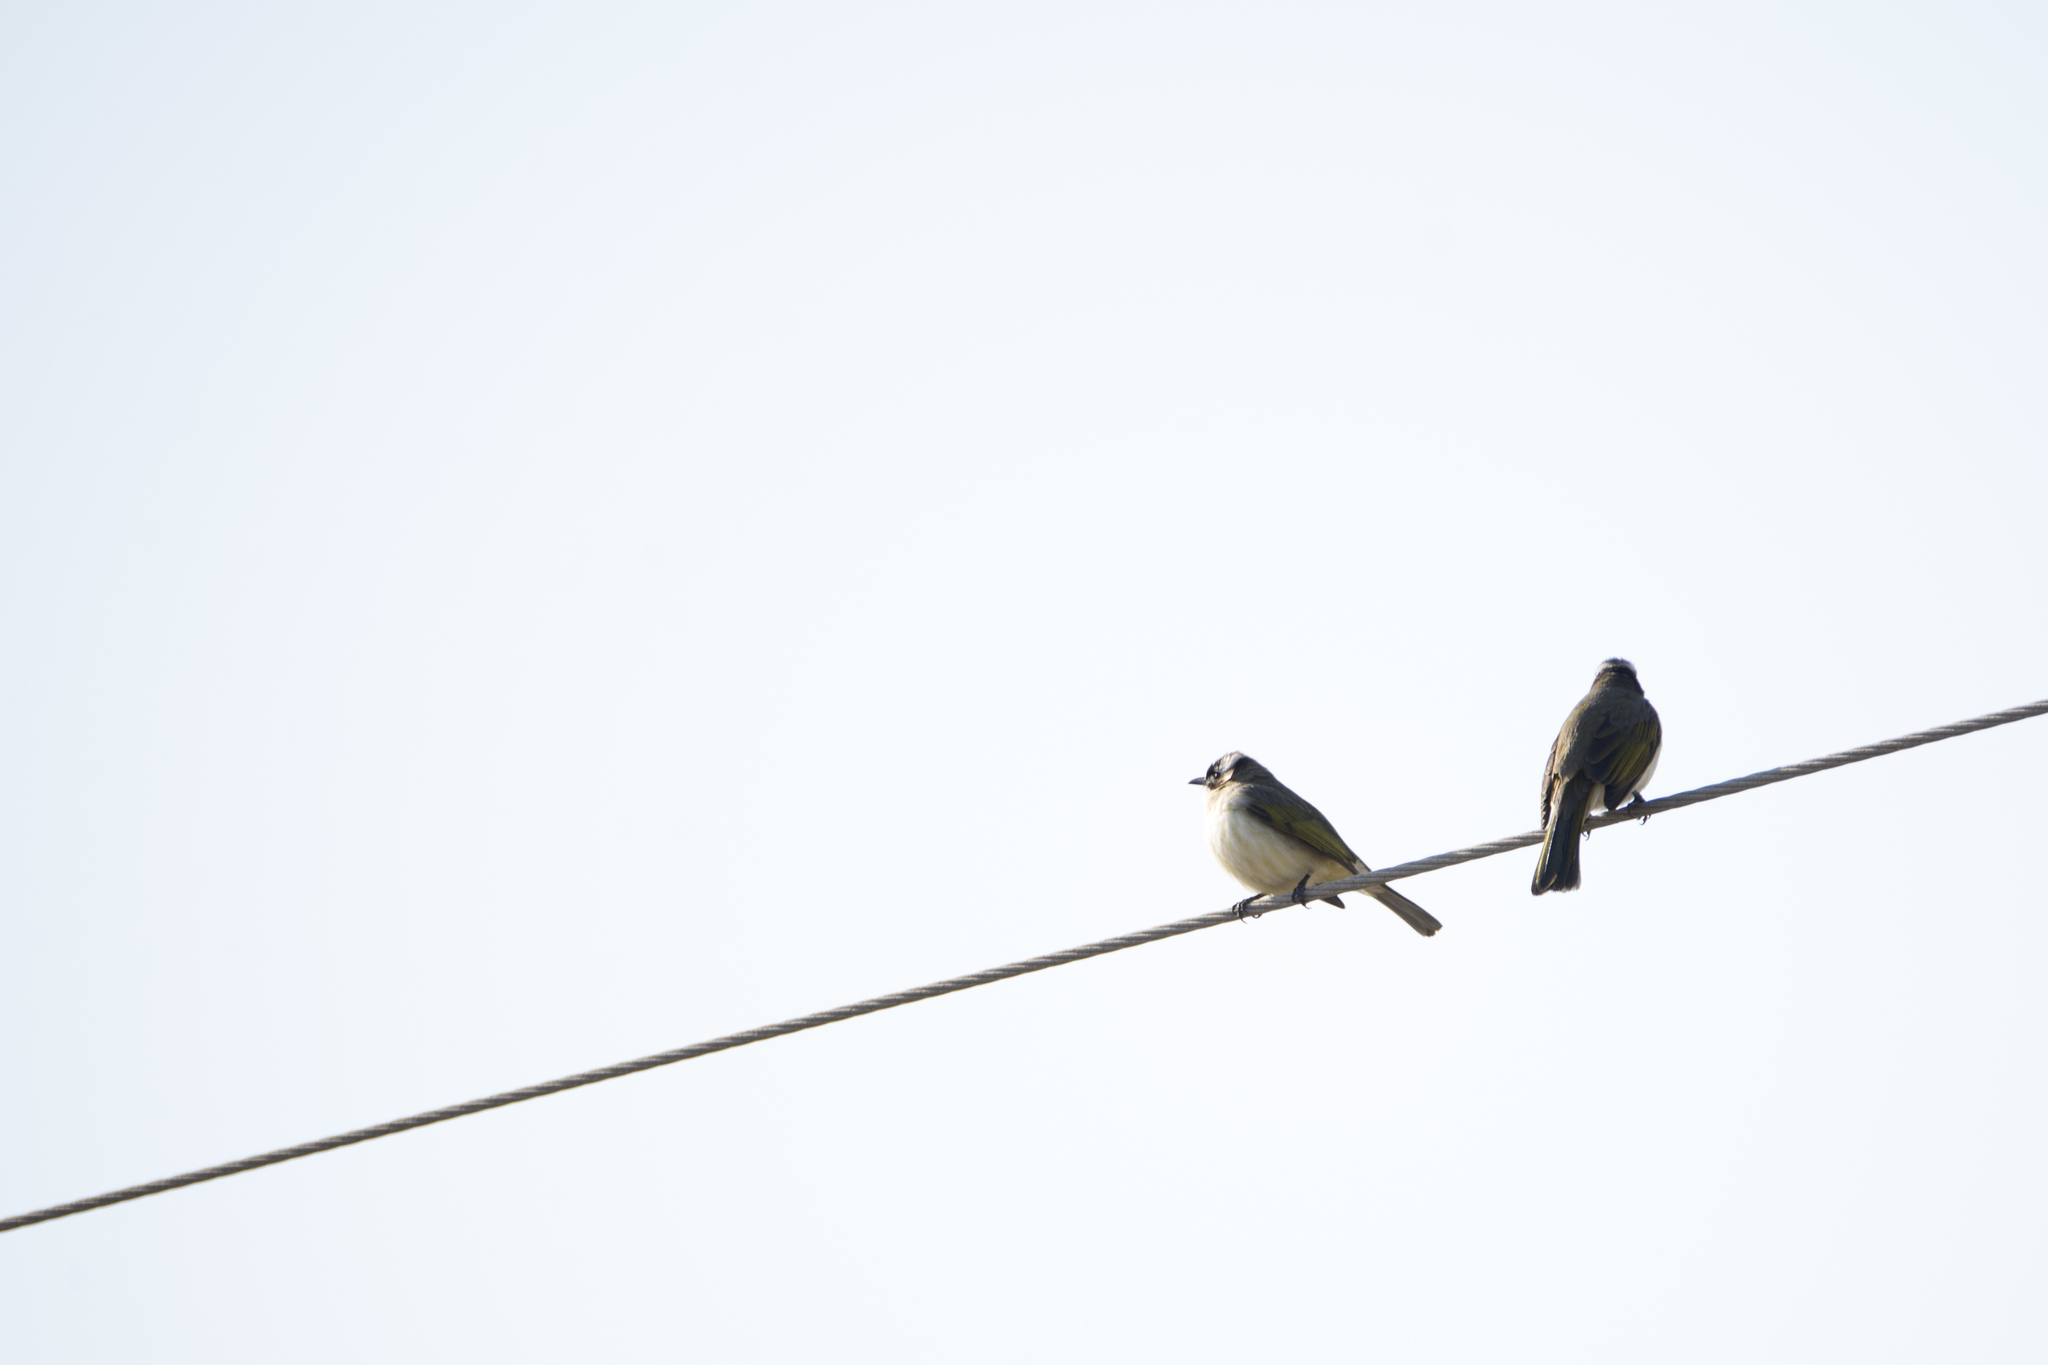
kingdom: Animalia
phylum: Chordata
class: Aves
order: Passeriformes
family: Pycnonotidae
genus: Pycnonotus
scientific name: Pycnonotus sinensis
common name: Light-vented bulbul
